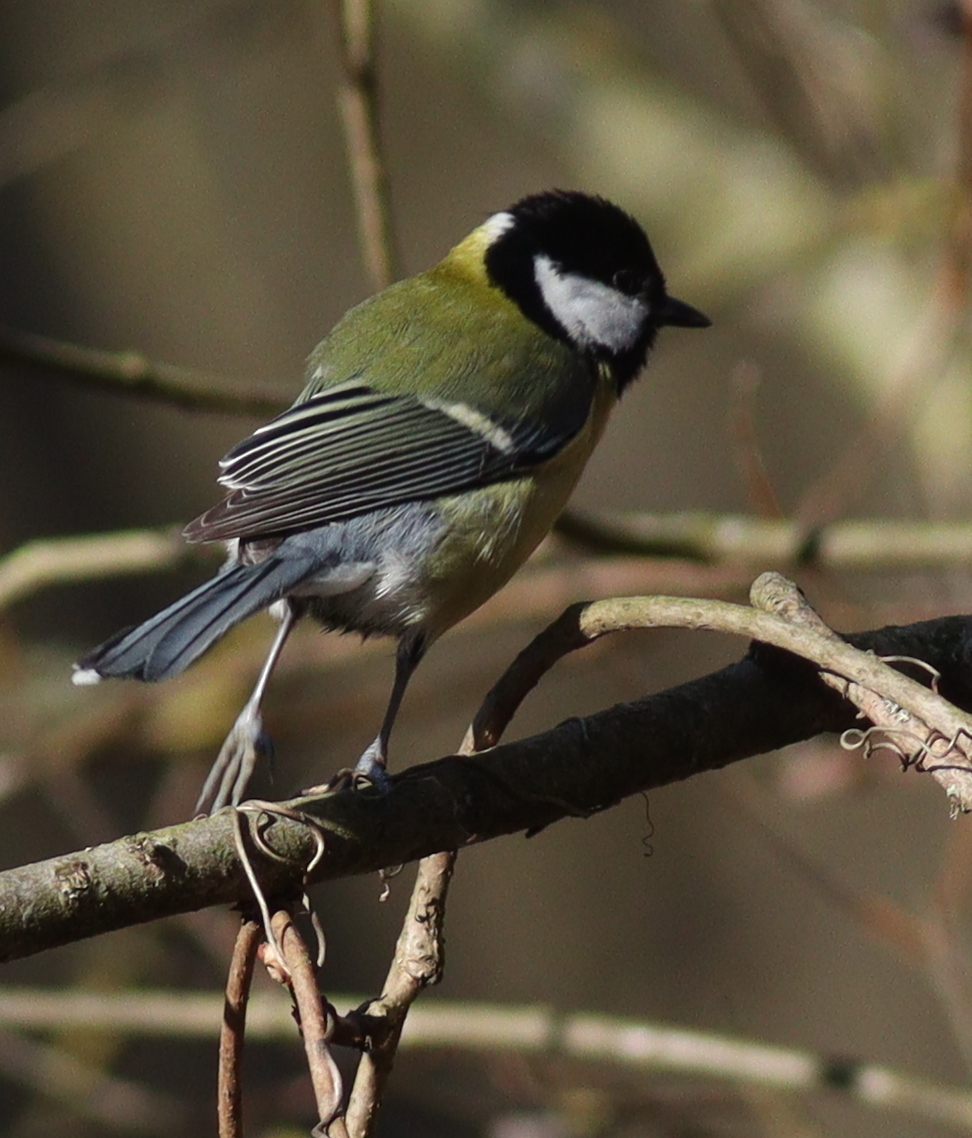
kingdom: Animalia
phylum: Chordata
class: Aves
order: Passeriformes
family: Paridae
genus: Parus
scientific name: Parus major
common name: Great tit
